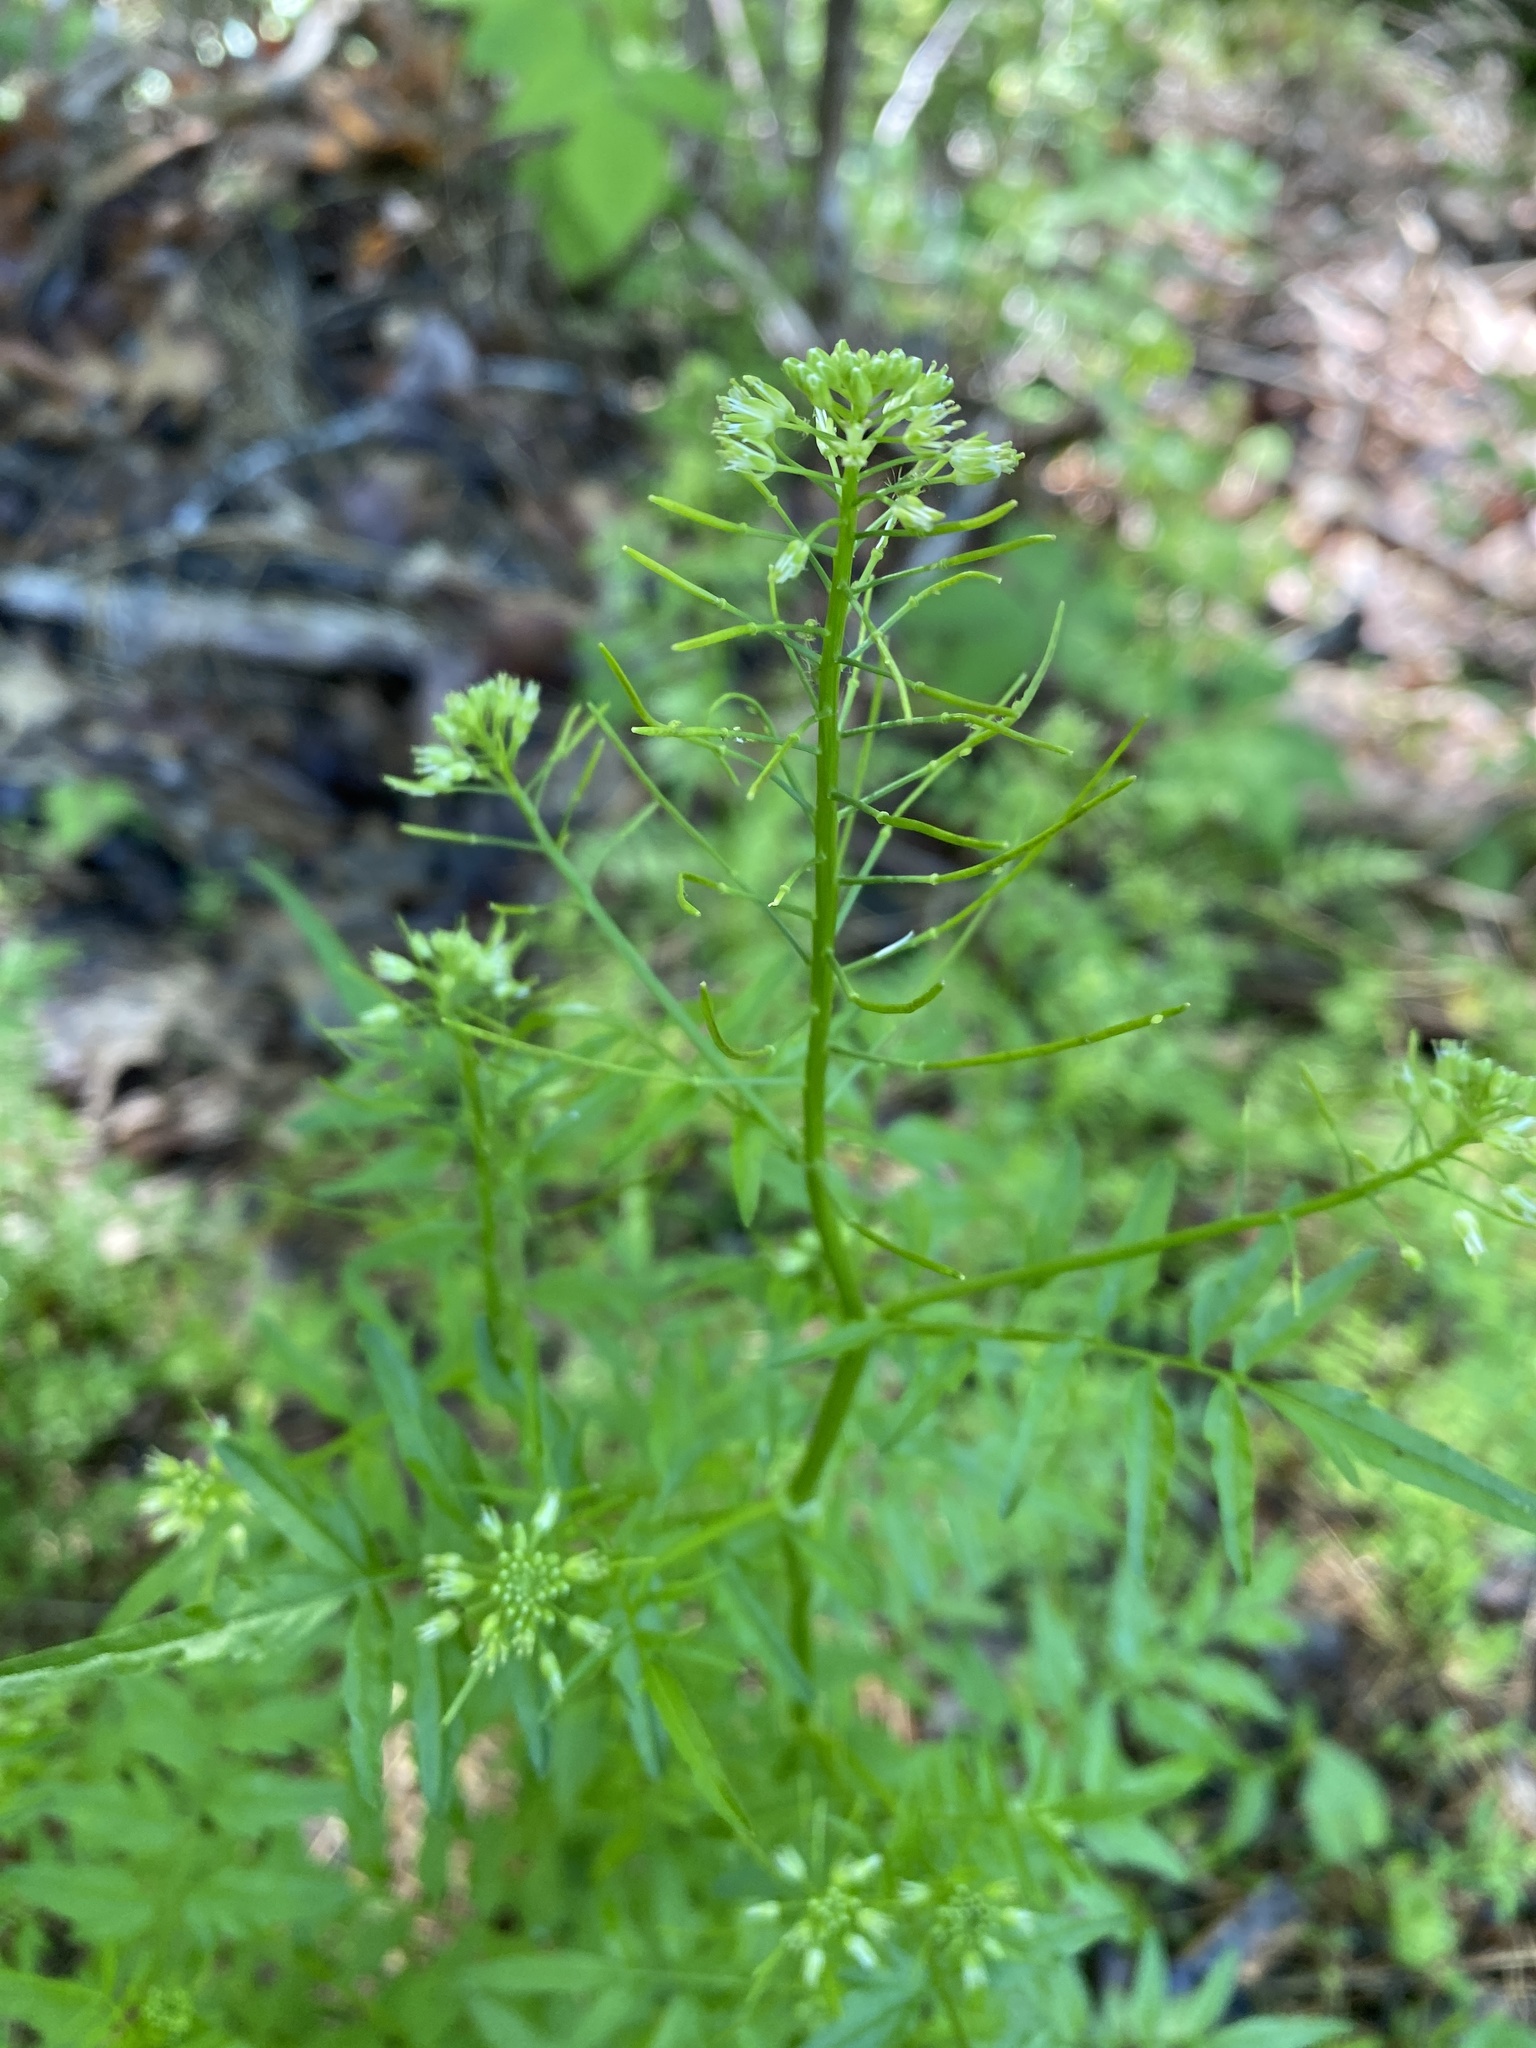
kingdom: Plantae
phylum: Tracheophyta
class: Magnoliopsida
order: Brassicales
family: Brassicaceae
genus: Cardamine
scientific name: Cardamine impatiens
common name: Narrow-leaved bitter-cress
